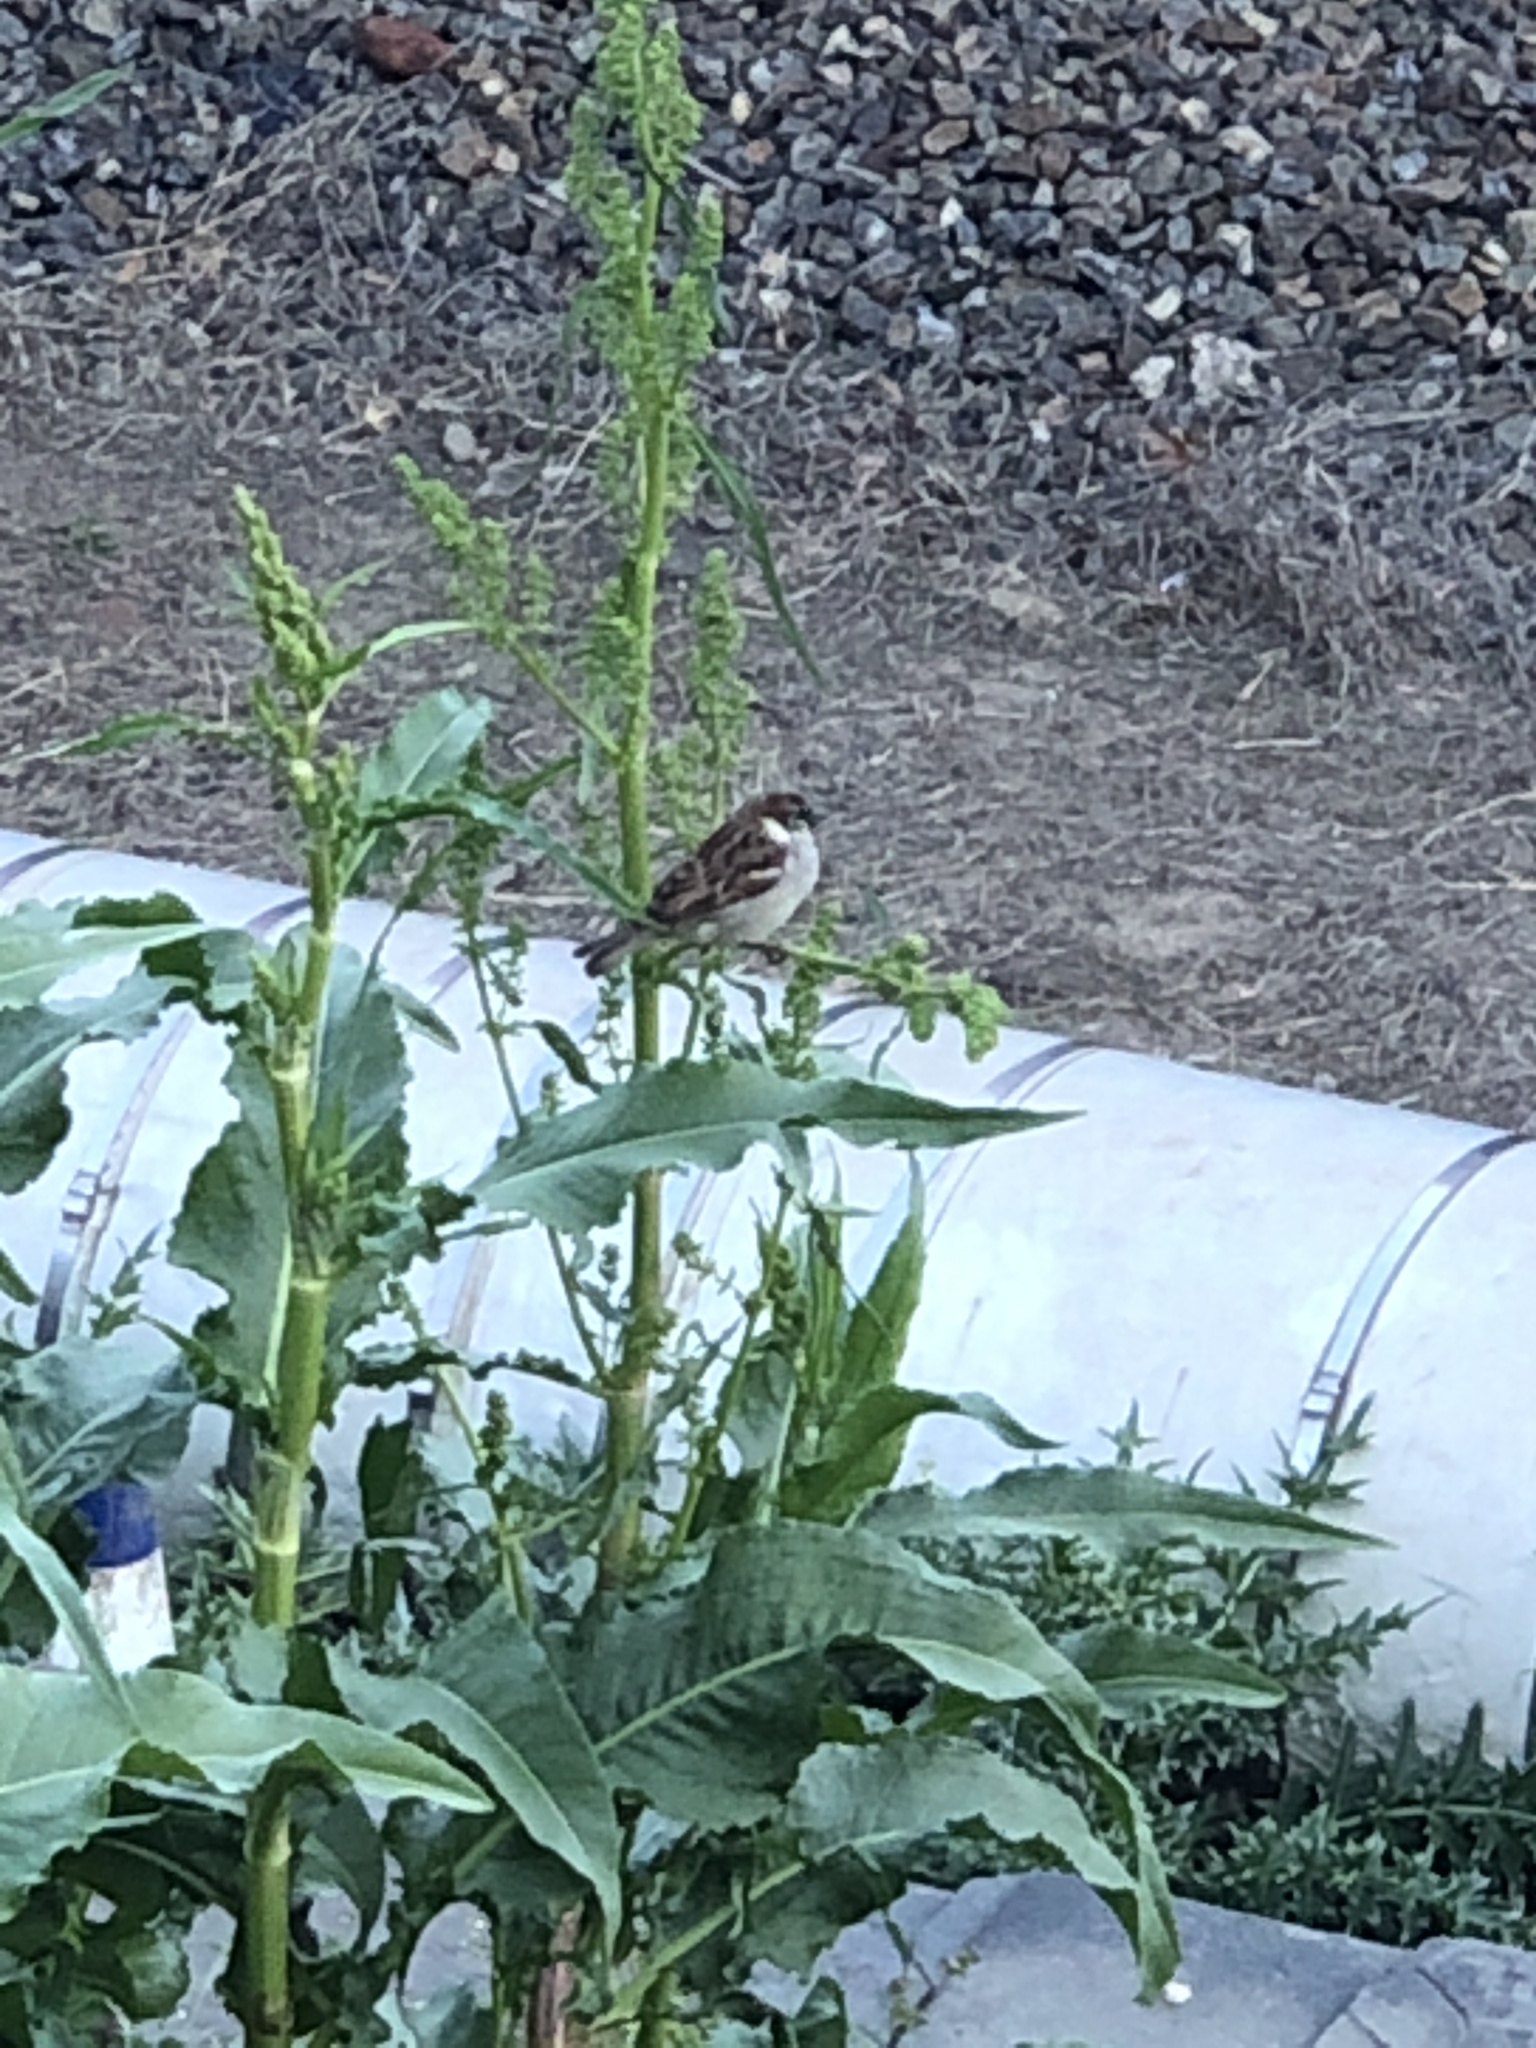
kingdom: Animalia
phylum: Chordata
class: Aves
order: Passeriformes
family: Passeridae
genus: Passer
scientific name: Passer domesticus
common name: House sparrow
